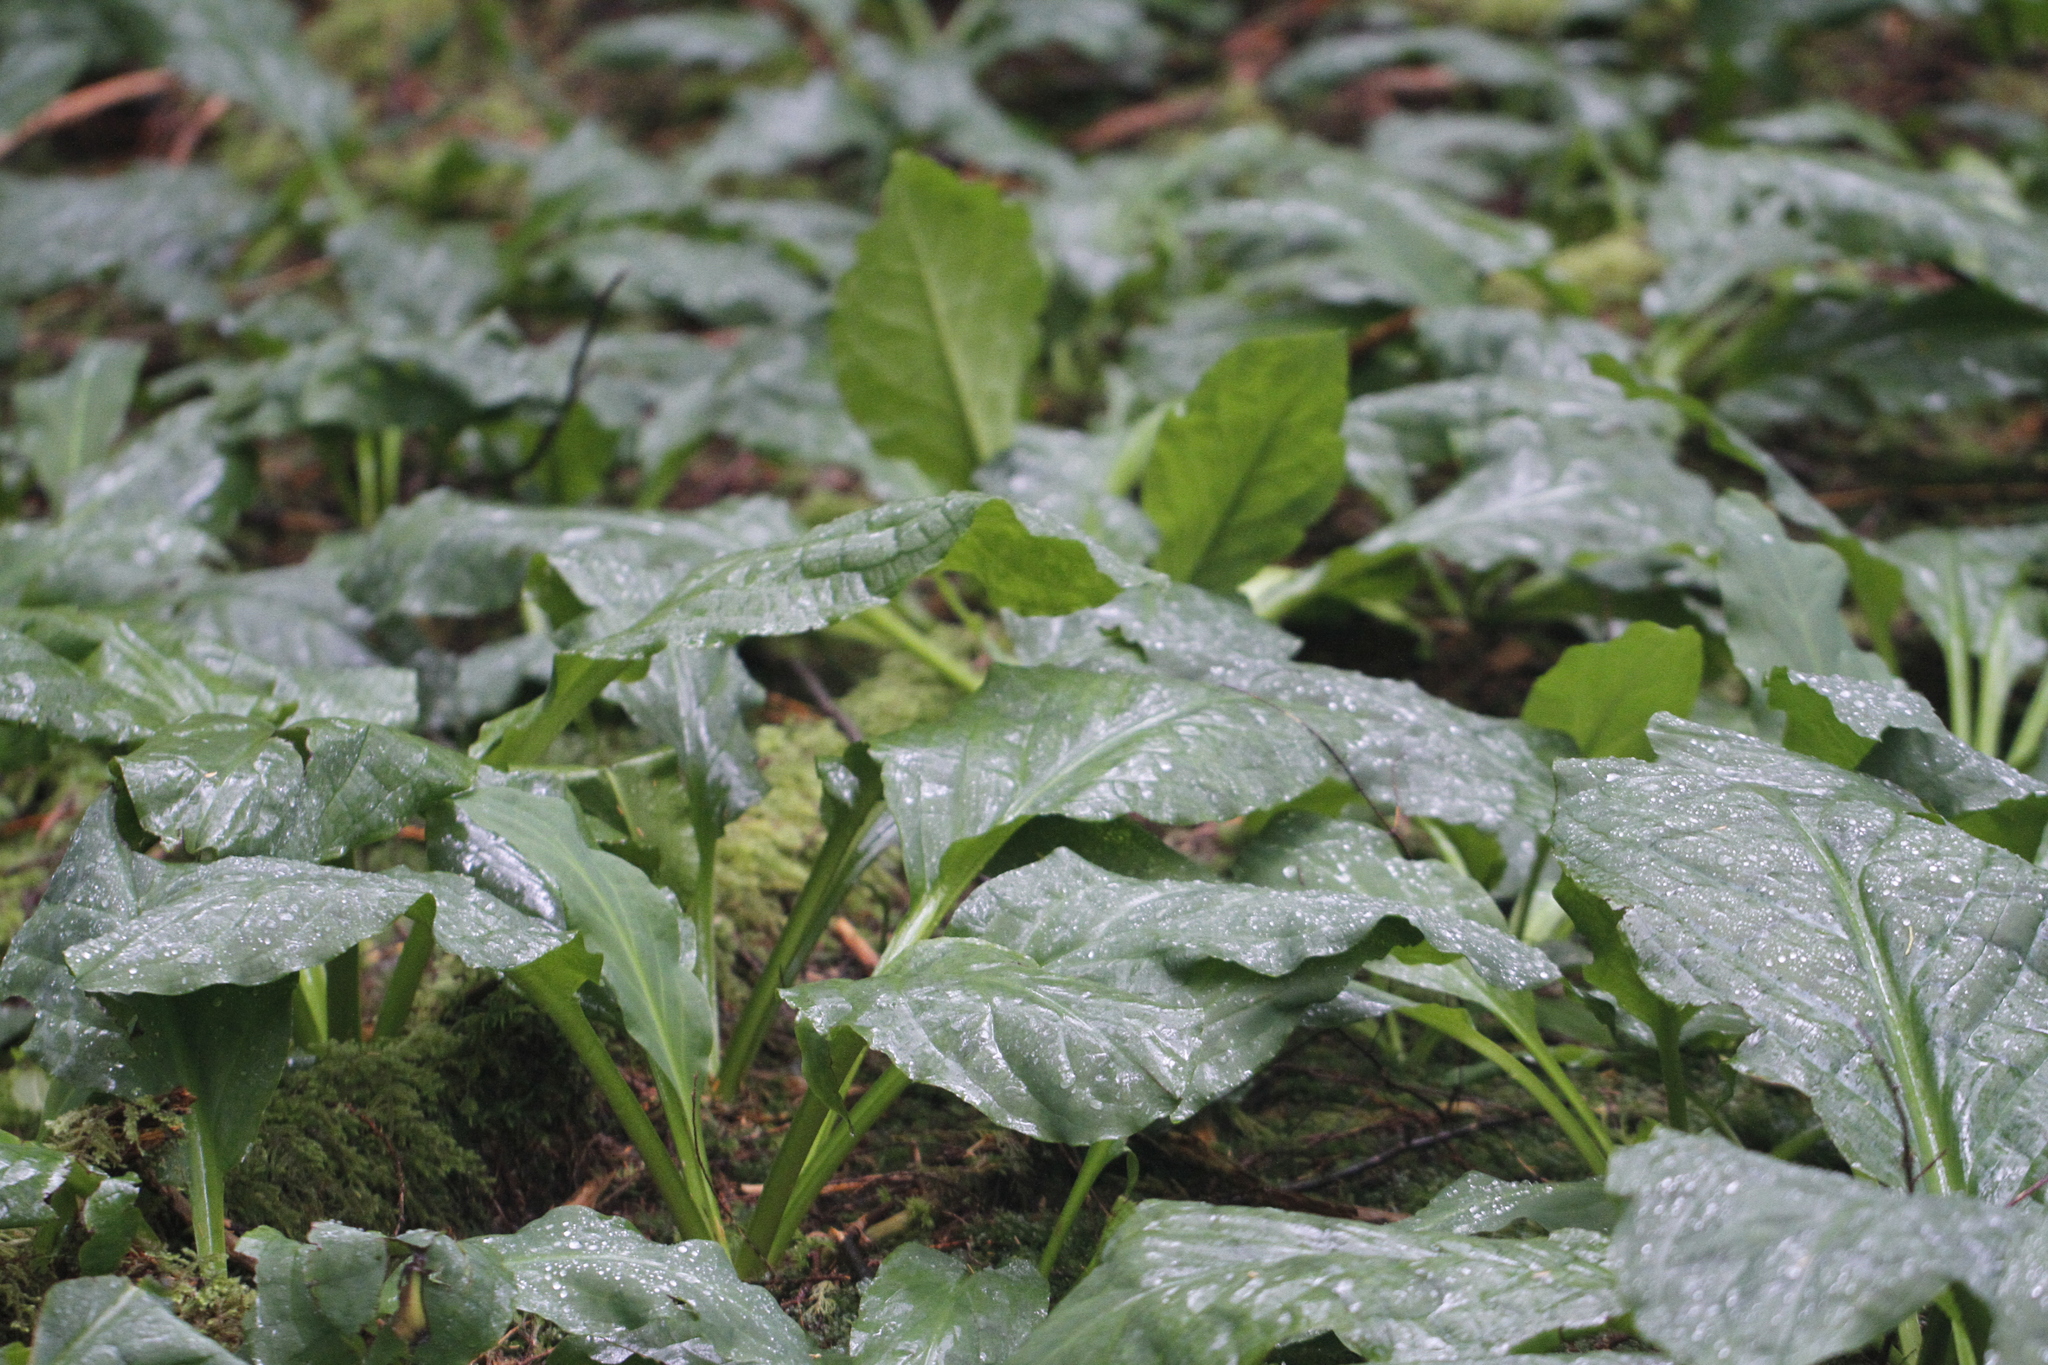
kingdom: Plantae
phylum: Tracheophyta
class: Liliopsida
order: Alismatales
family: Araceae
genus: Lysichiton
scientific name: Lysichiton americanus
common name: American skunk cabbage
